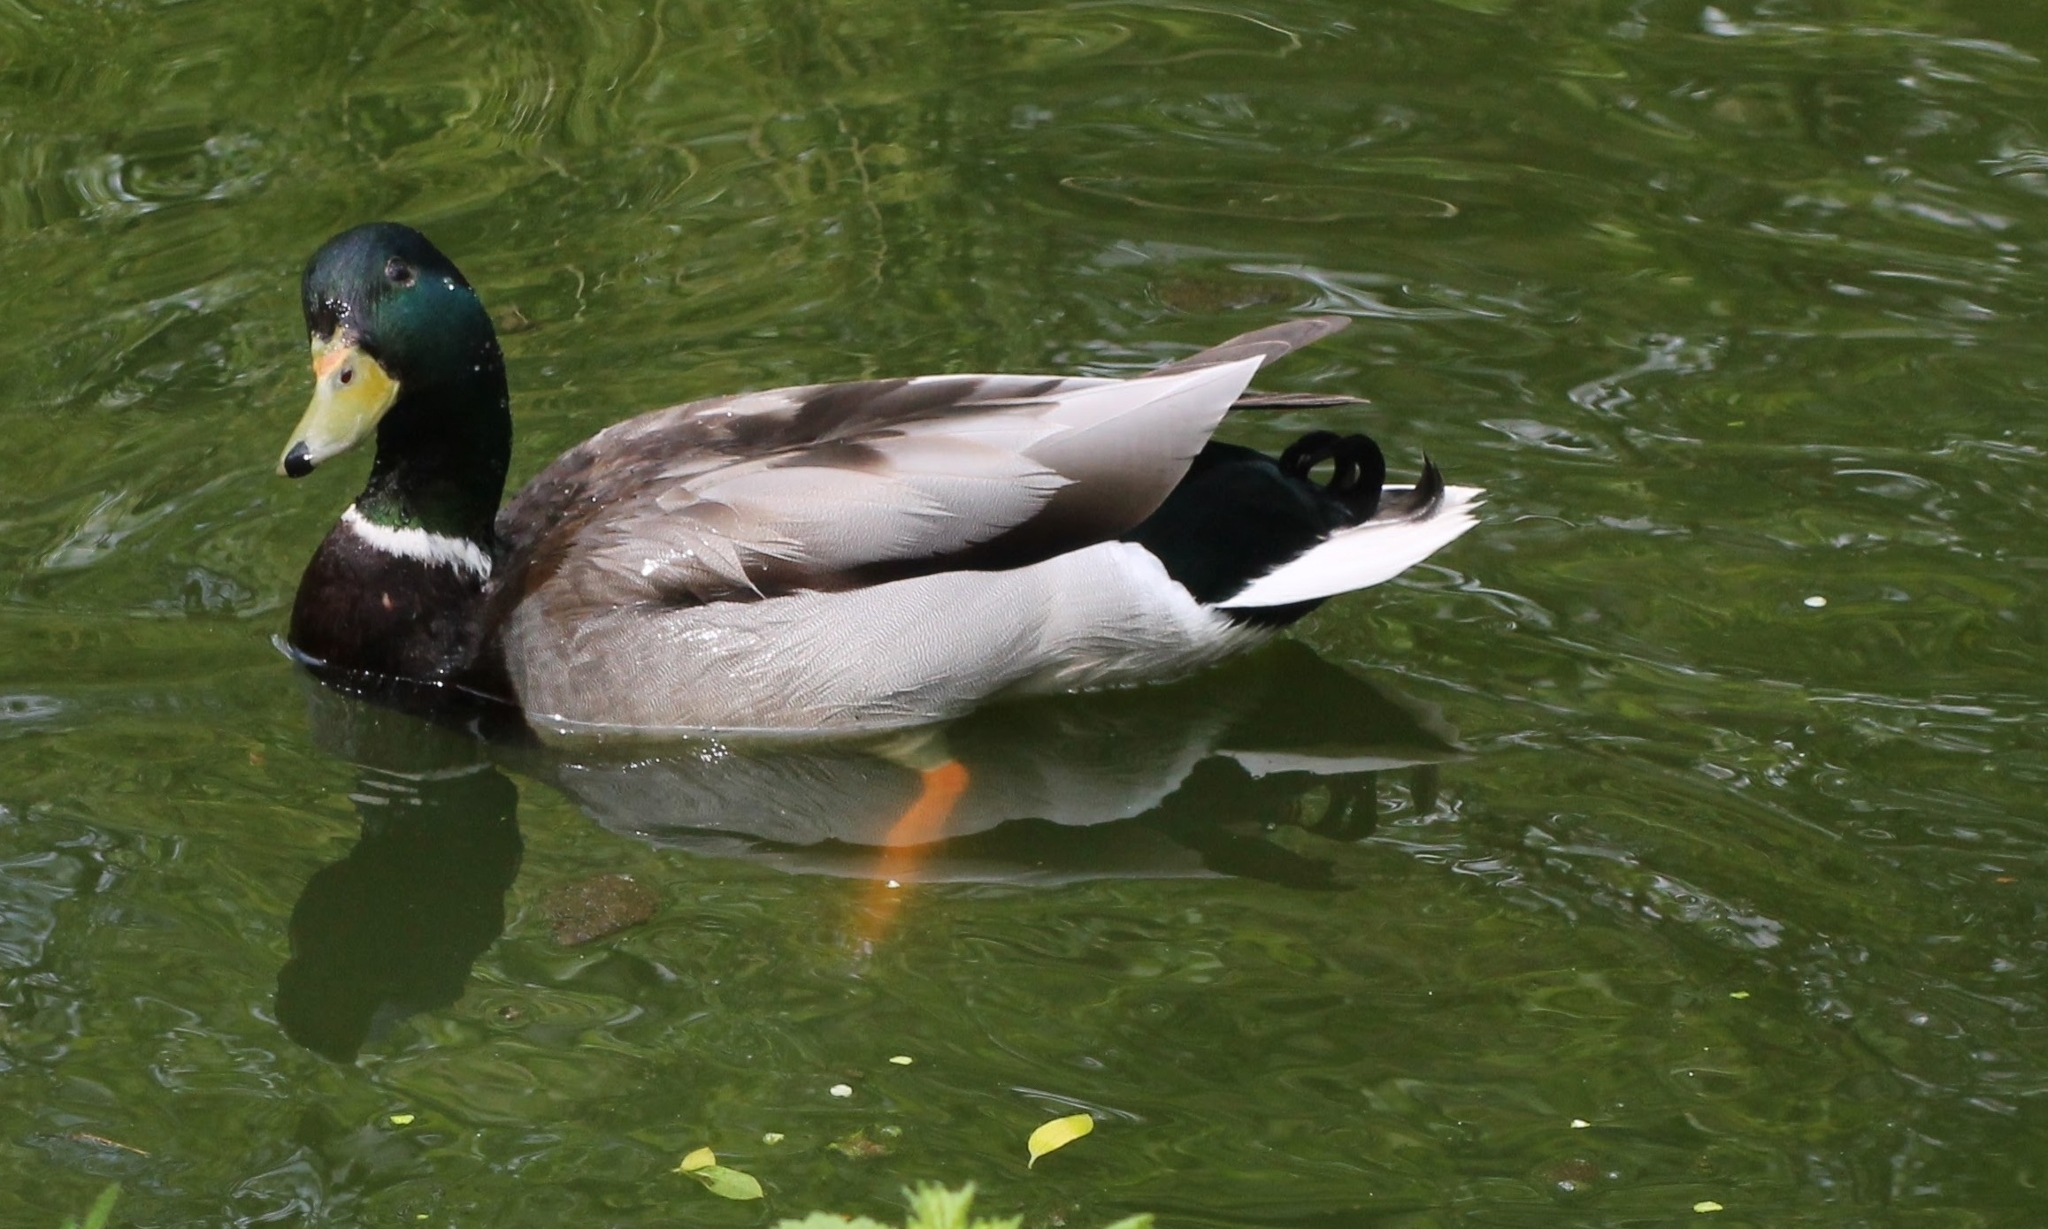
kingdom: Animalia
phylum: Chordata
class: Aves
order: Anseriformes
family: Anatidae
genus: Anas
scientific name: Anas platyrhynchos
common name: Mallard
